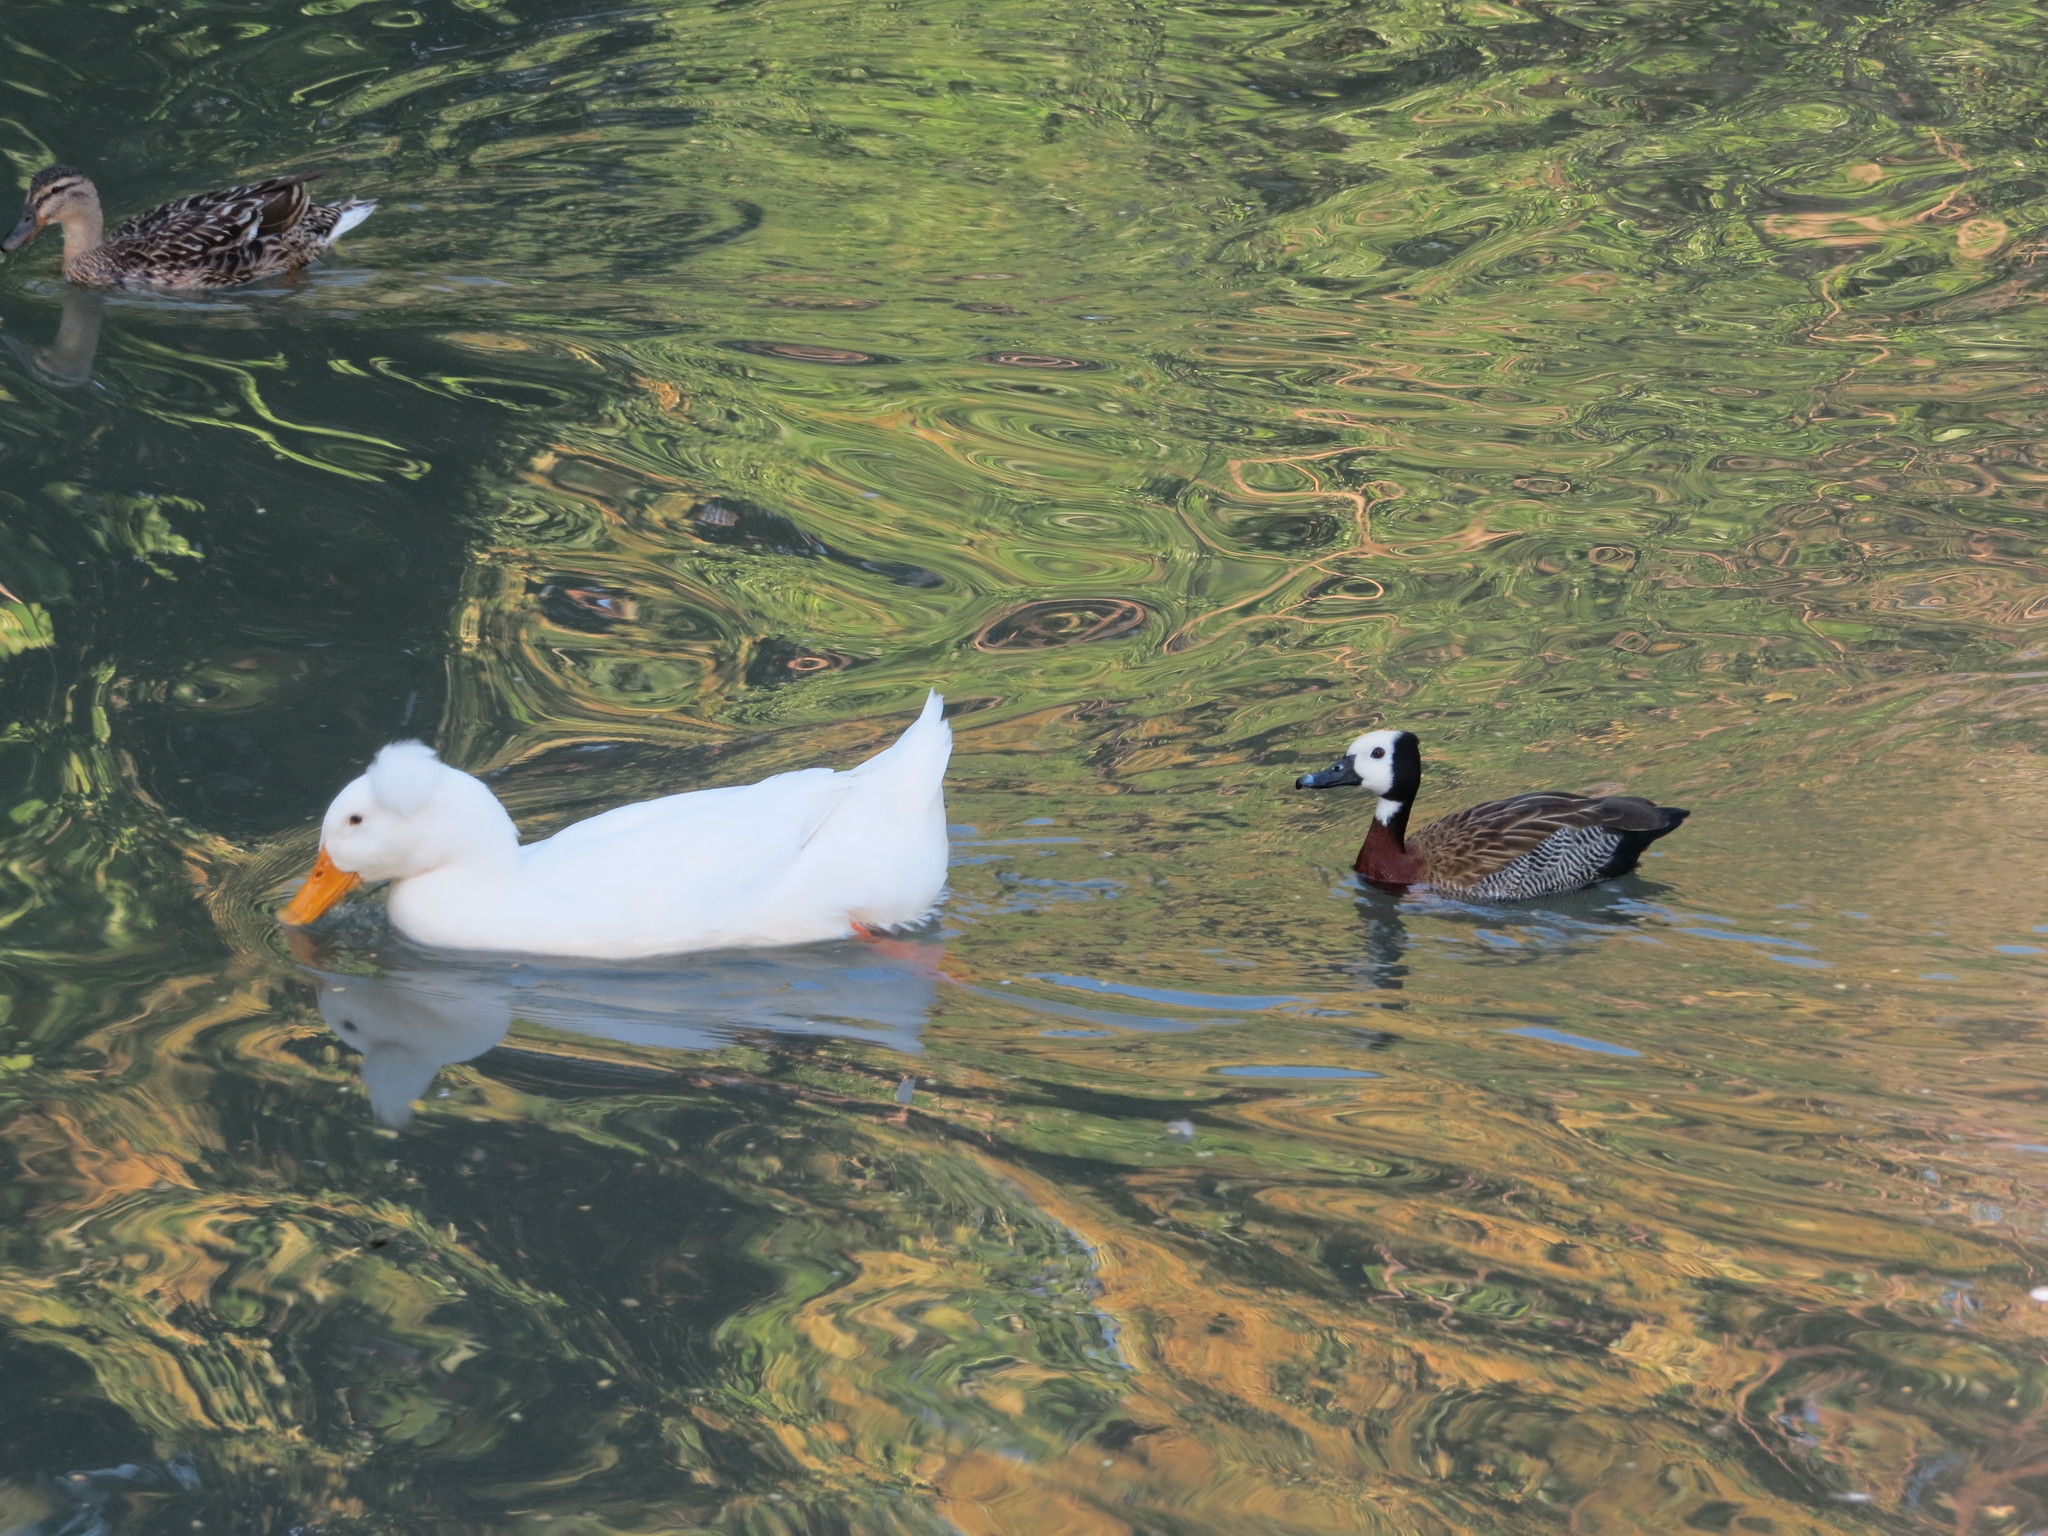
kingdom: Animalia
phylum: Chordata
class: Aves
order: Anseriformes
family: Anatidae
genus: Dendrocygna
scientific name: Dendrocygna viduata
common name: White-faced whistling duck
